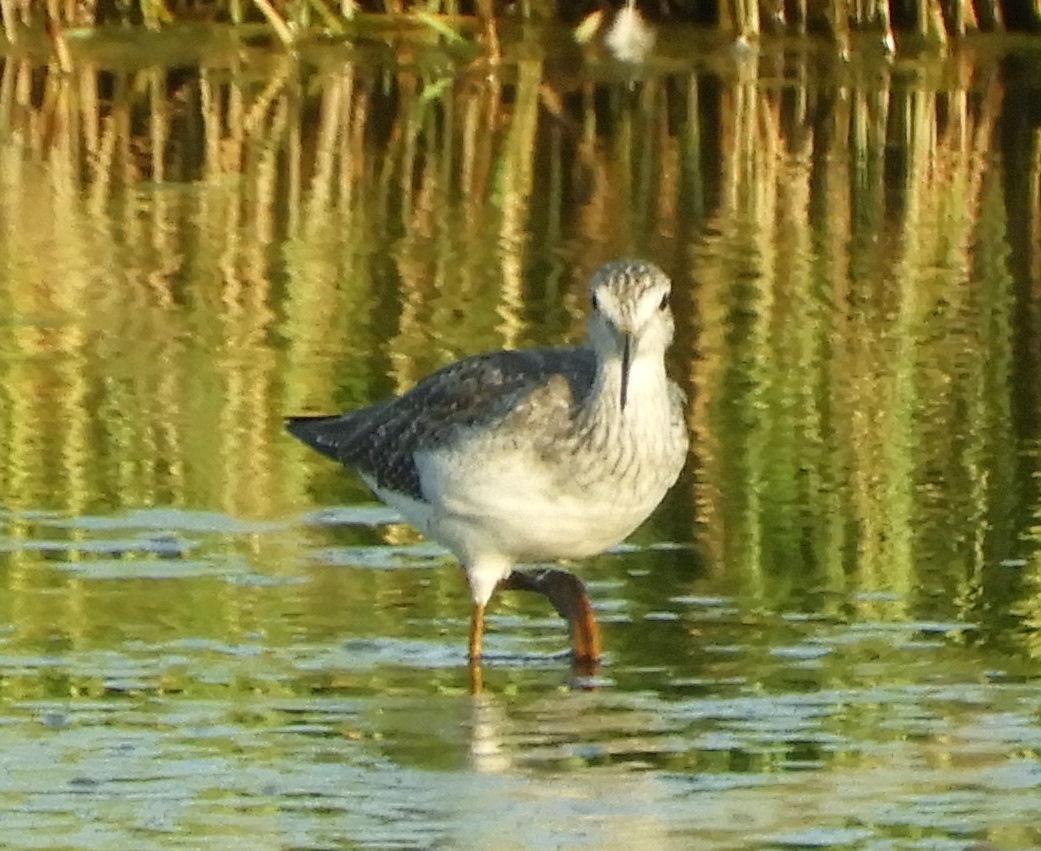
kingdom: Animalia
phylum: Chordata
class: Aves
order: Charadriiformes
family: Scolopacidae
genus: Tringa
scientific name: Tringa melanoleuca
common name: Greater yellowlegs
